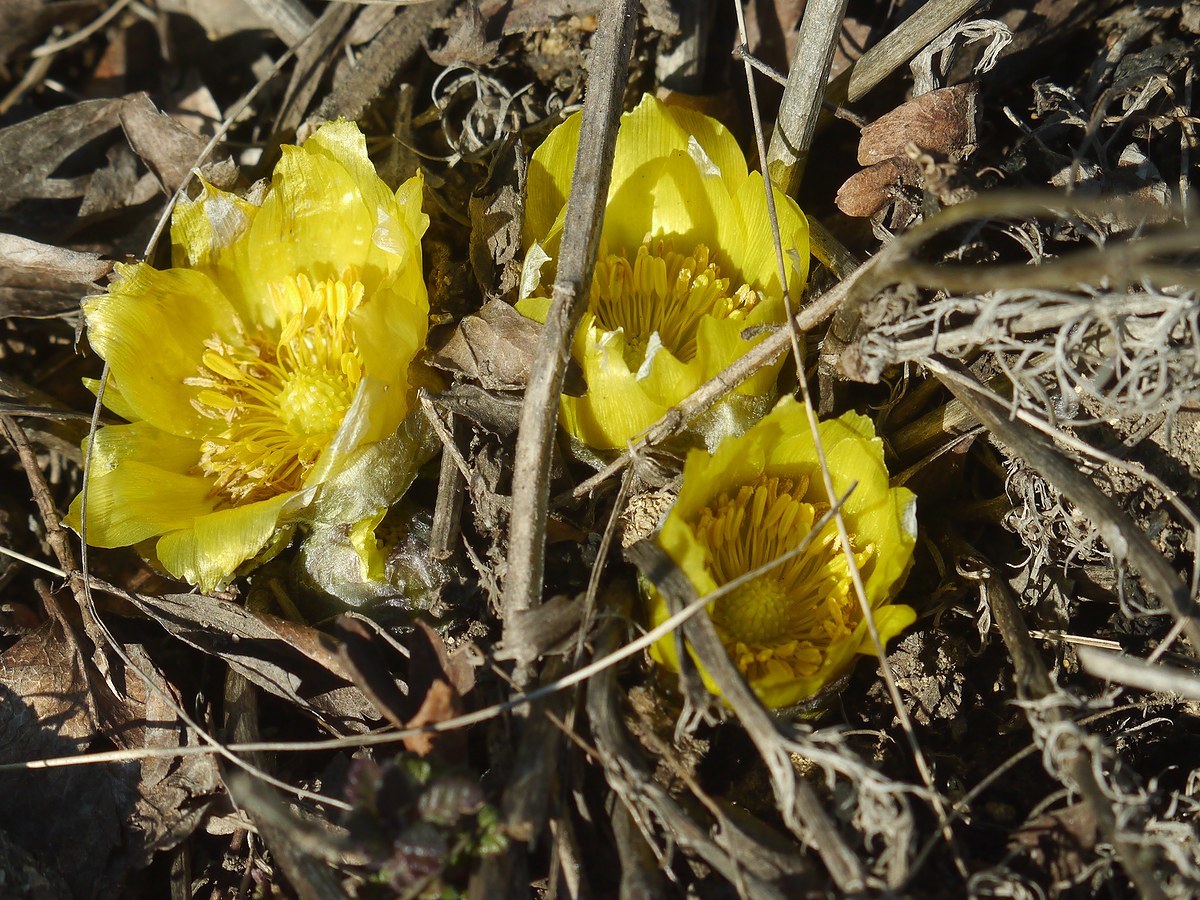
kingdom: Plantae
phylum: Tracheophyta
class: Magnoliopsida
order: Ranunculales
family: Ranunculaceae
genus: Adonis
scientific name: Adonis vernalis
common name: Yellow pheasants-eye
